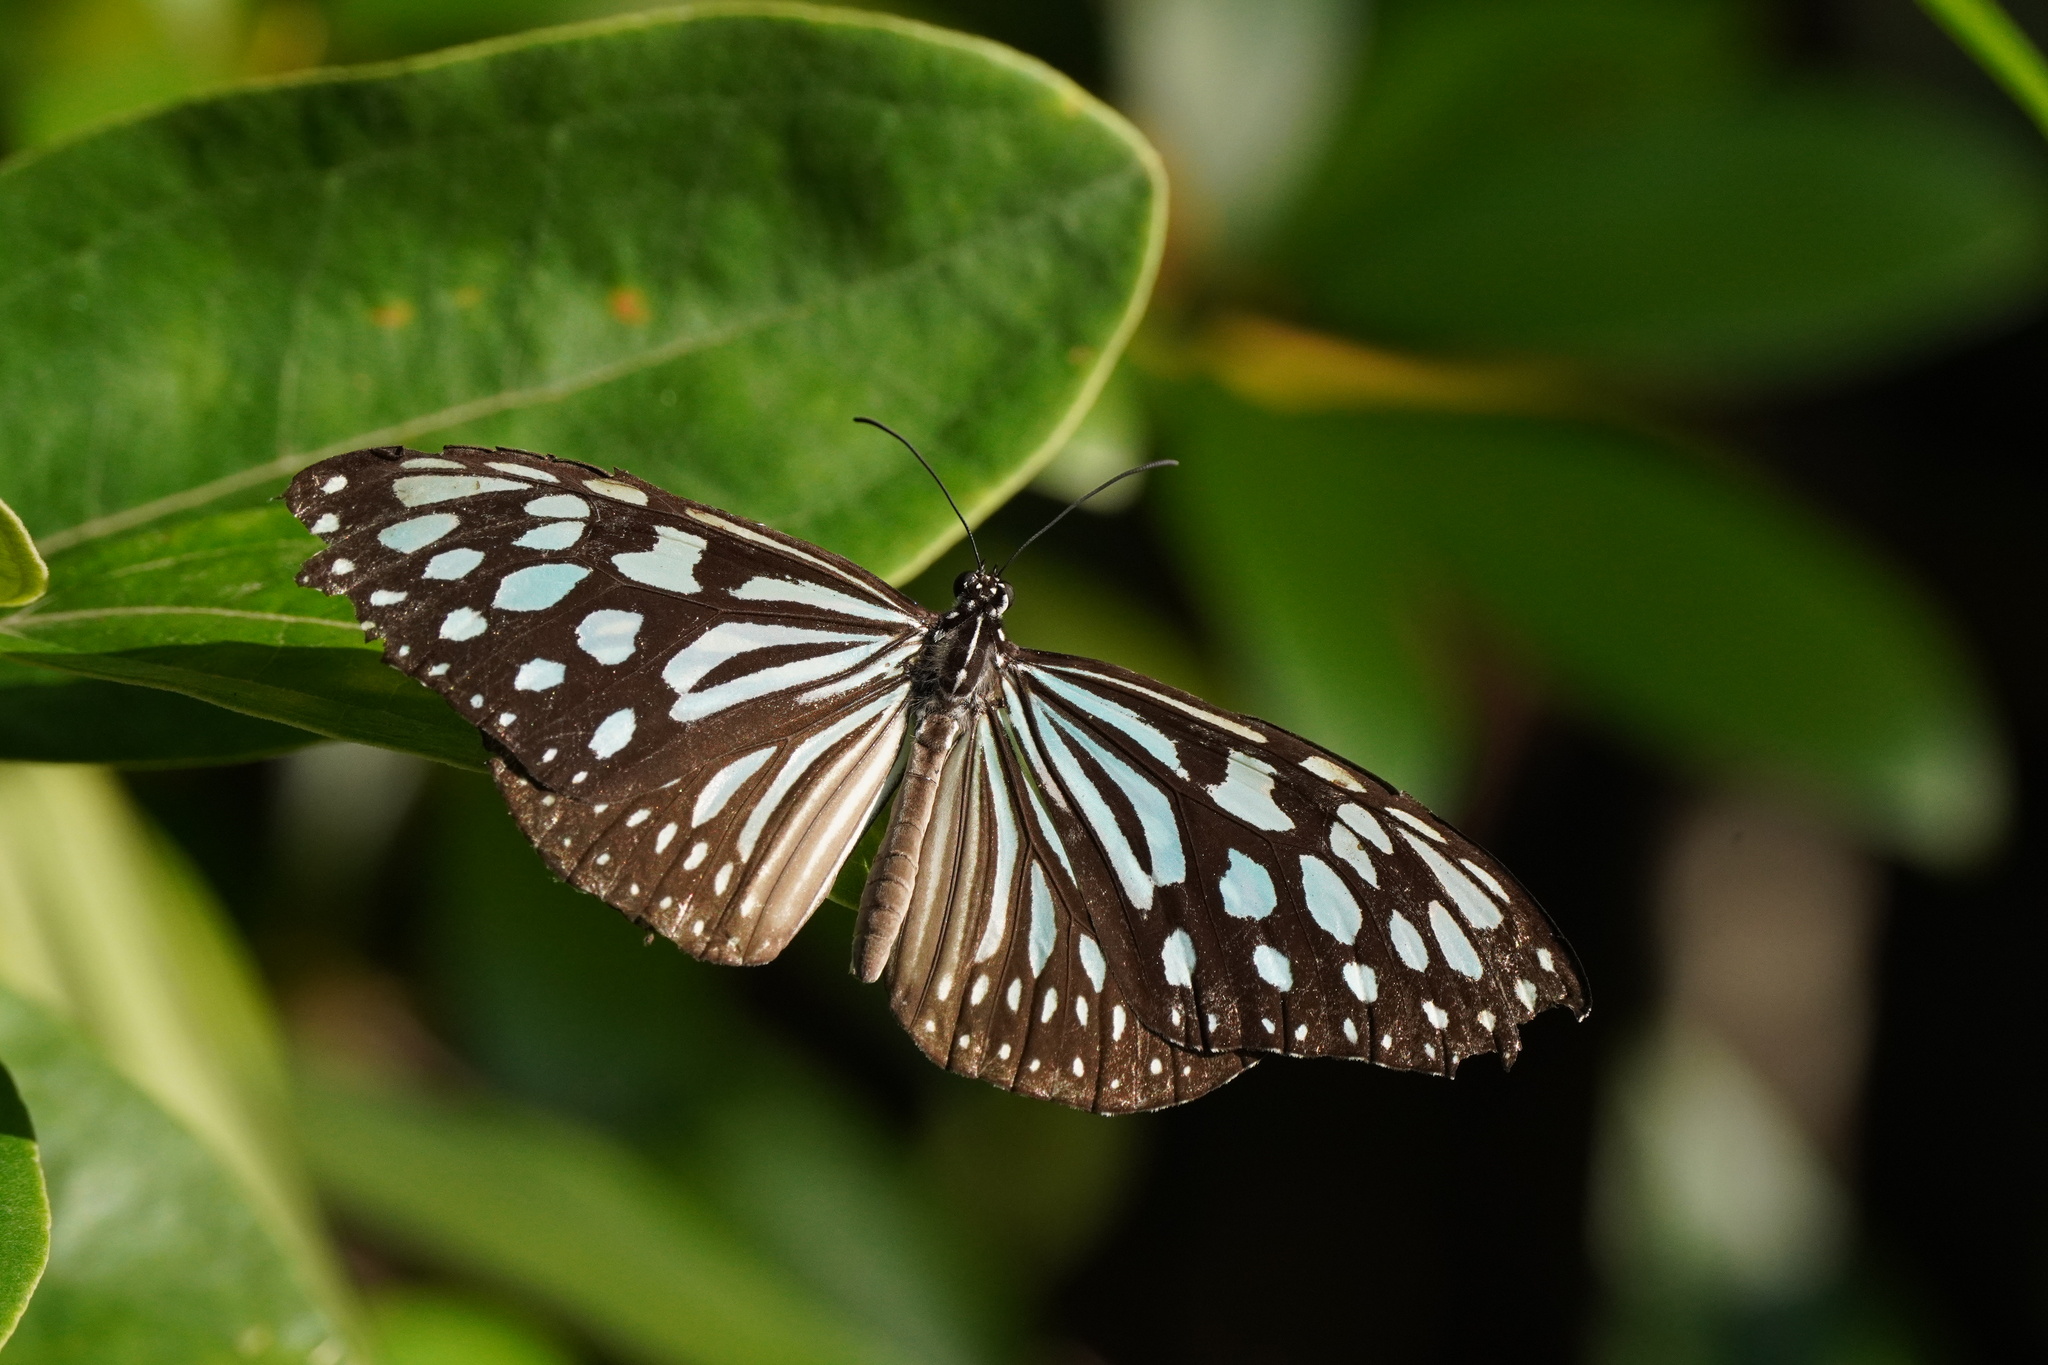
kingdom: Animalia
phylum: Arthropoda
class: Insecta
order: Lepidoptera
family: Nymphalidae
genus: Ideopsis
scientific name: Ideopsis similis
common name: Ceylon blue glassy tiger
